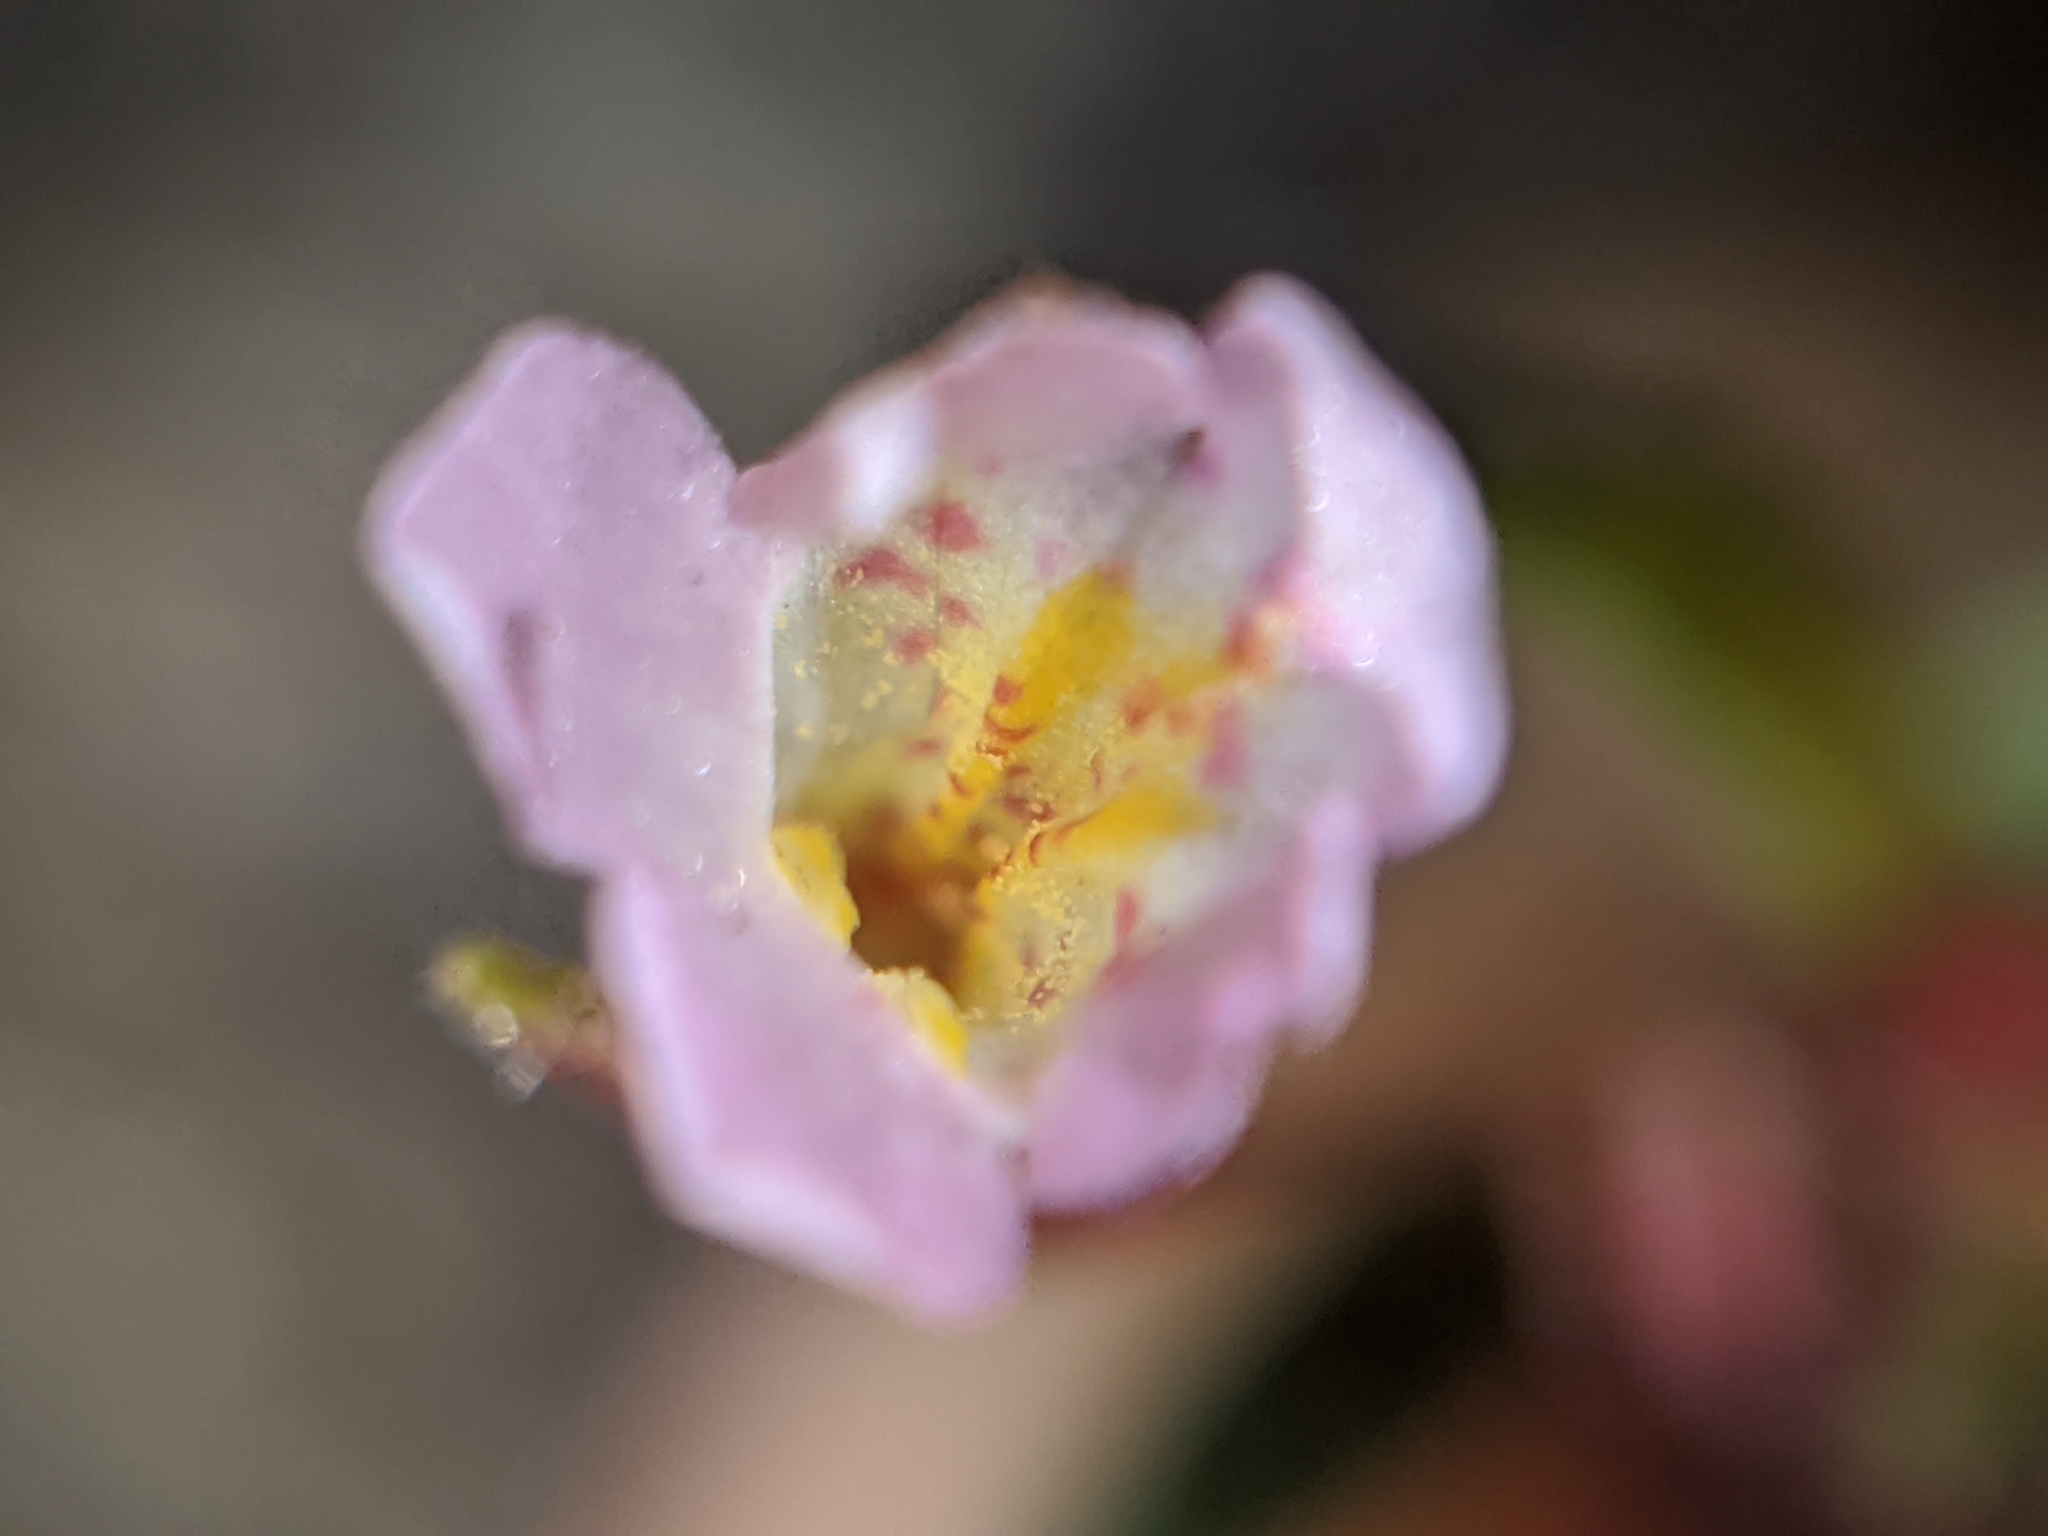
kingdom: Plantae
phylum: Tracheophyta
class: Magnoliopsida
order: Lamiales
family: Phrymaceae
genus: Erythranthe
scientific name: Erythranthe breweri
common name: Brewer's monkeyflower
